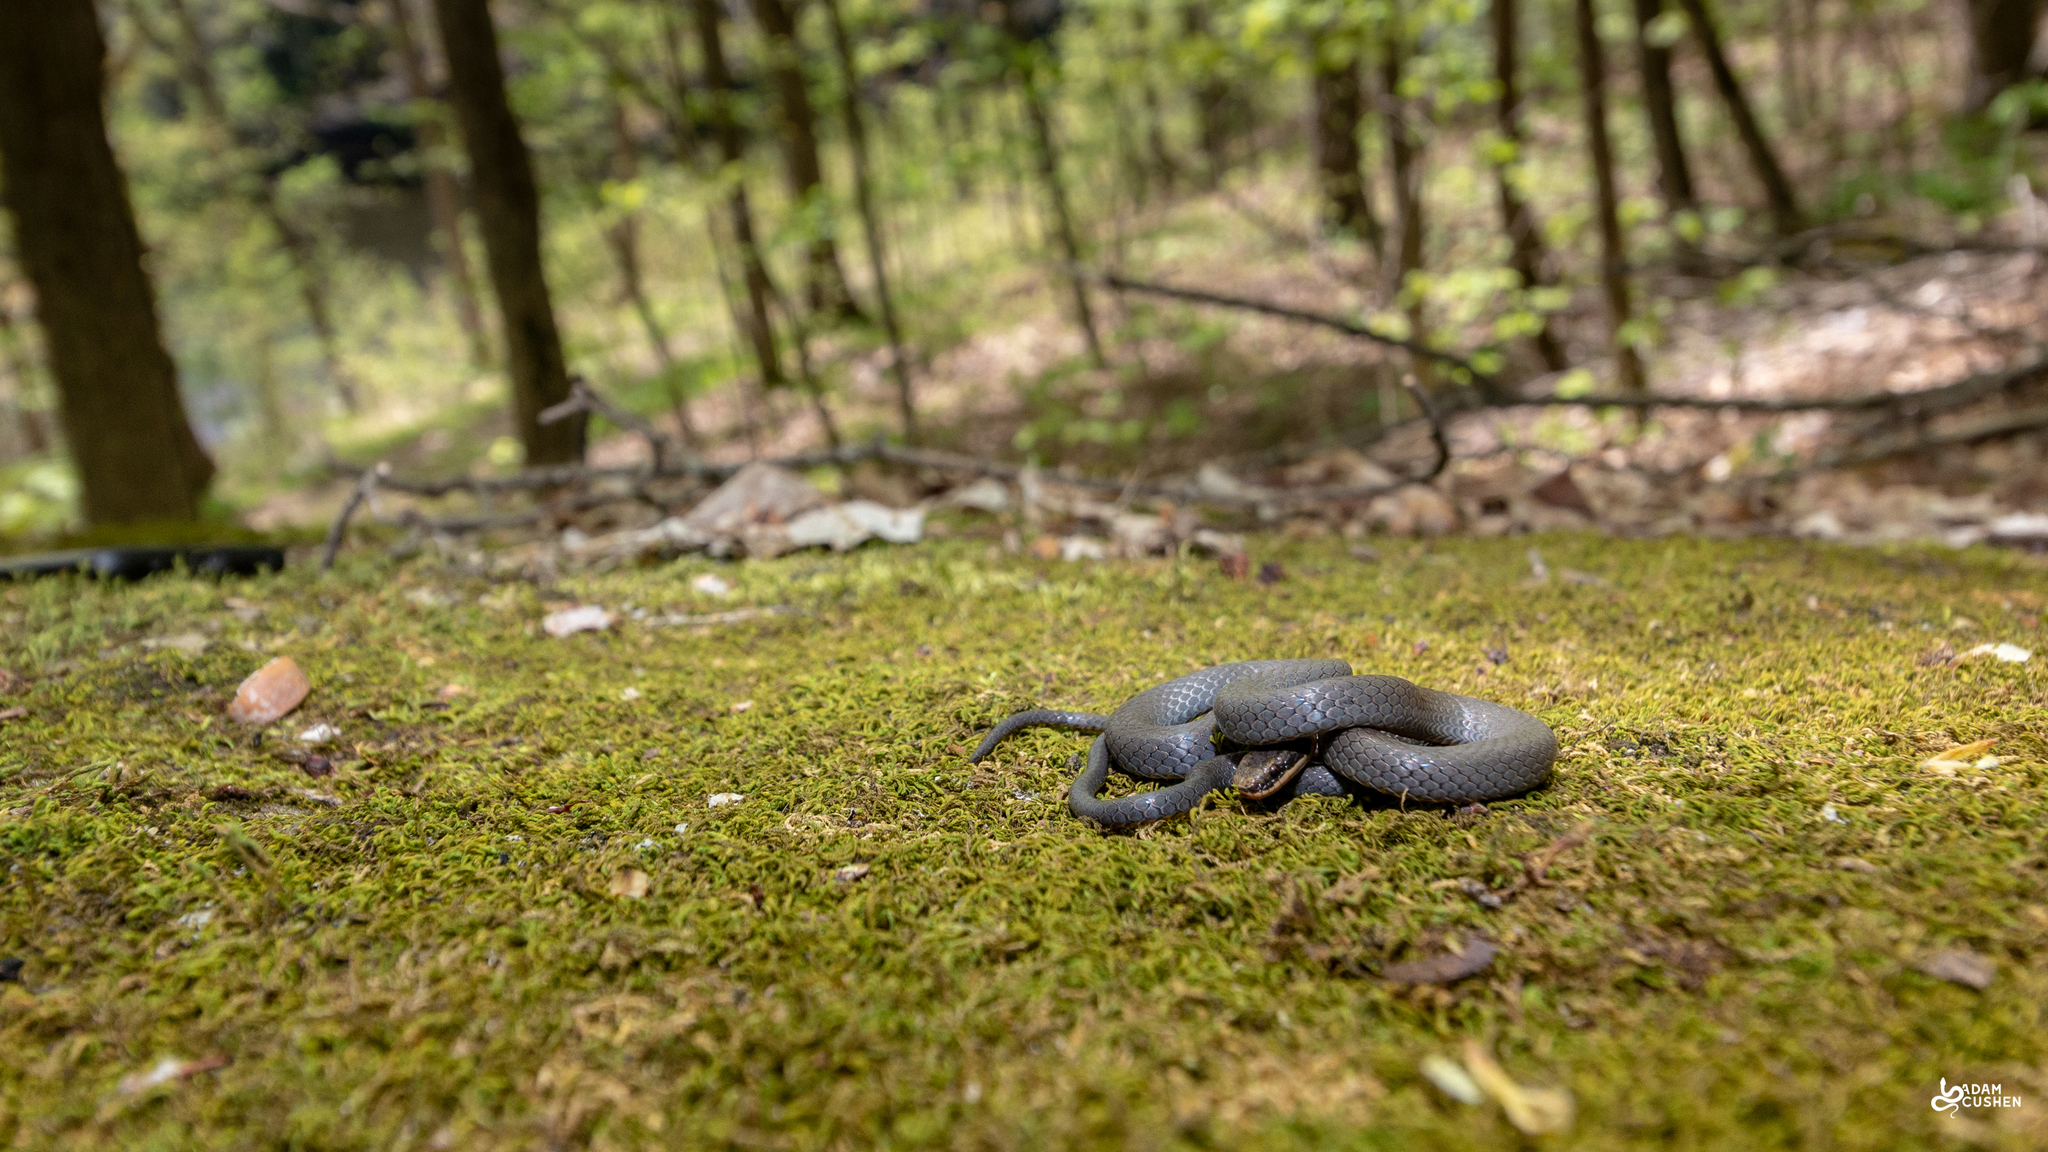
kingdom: Animalia
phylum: Chordata
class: Squamata
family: Colubridae
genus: Diadophis
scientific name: Diadophis punctatus
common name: Ringneck snake
